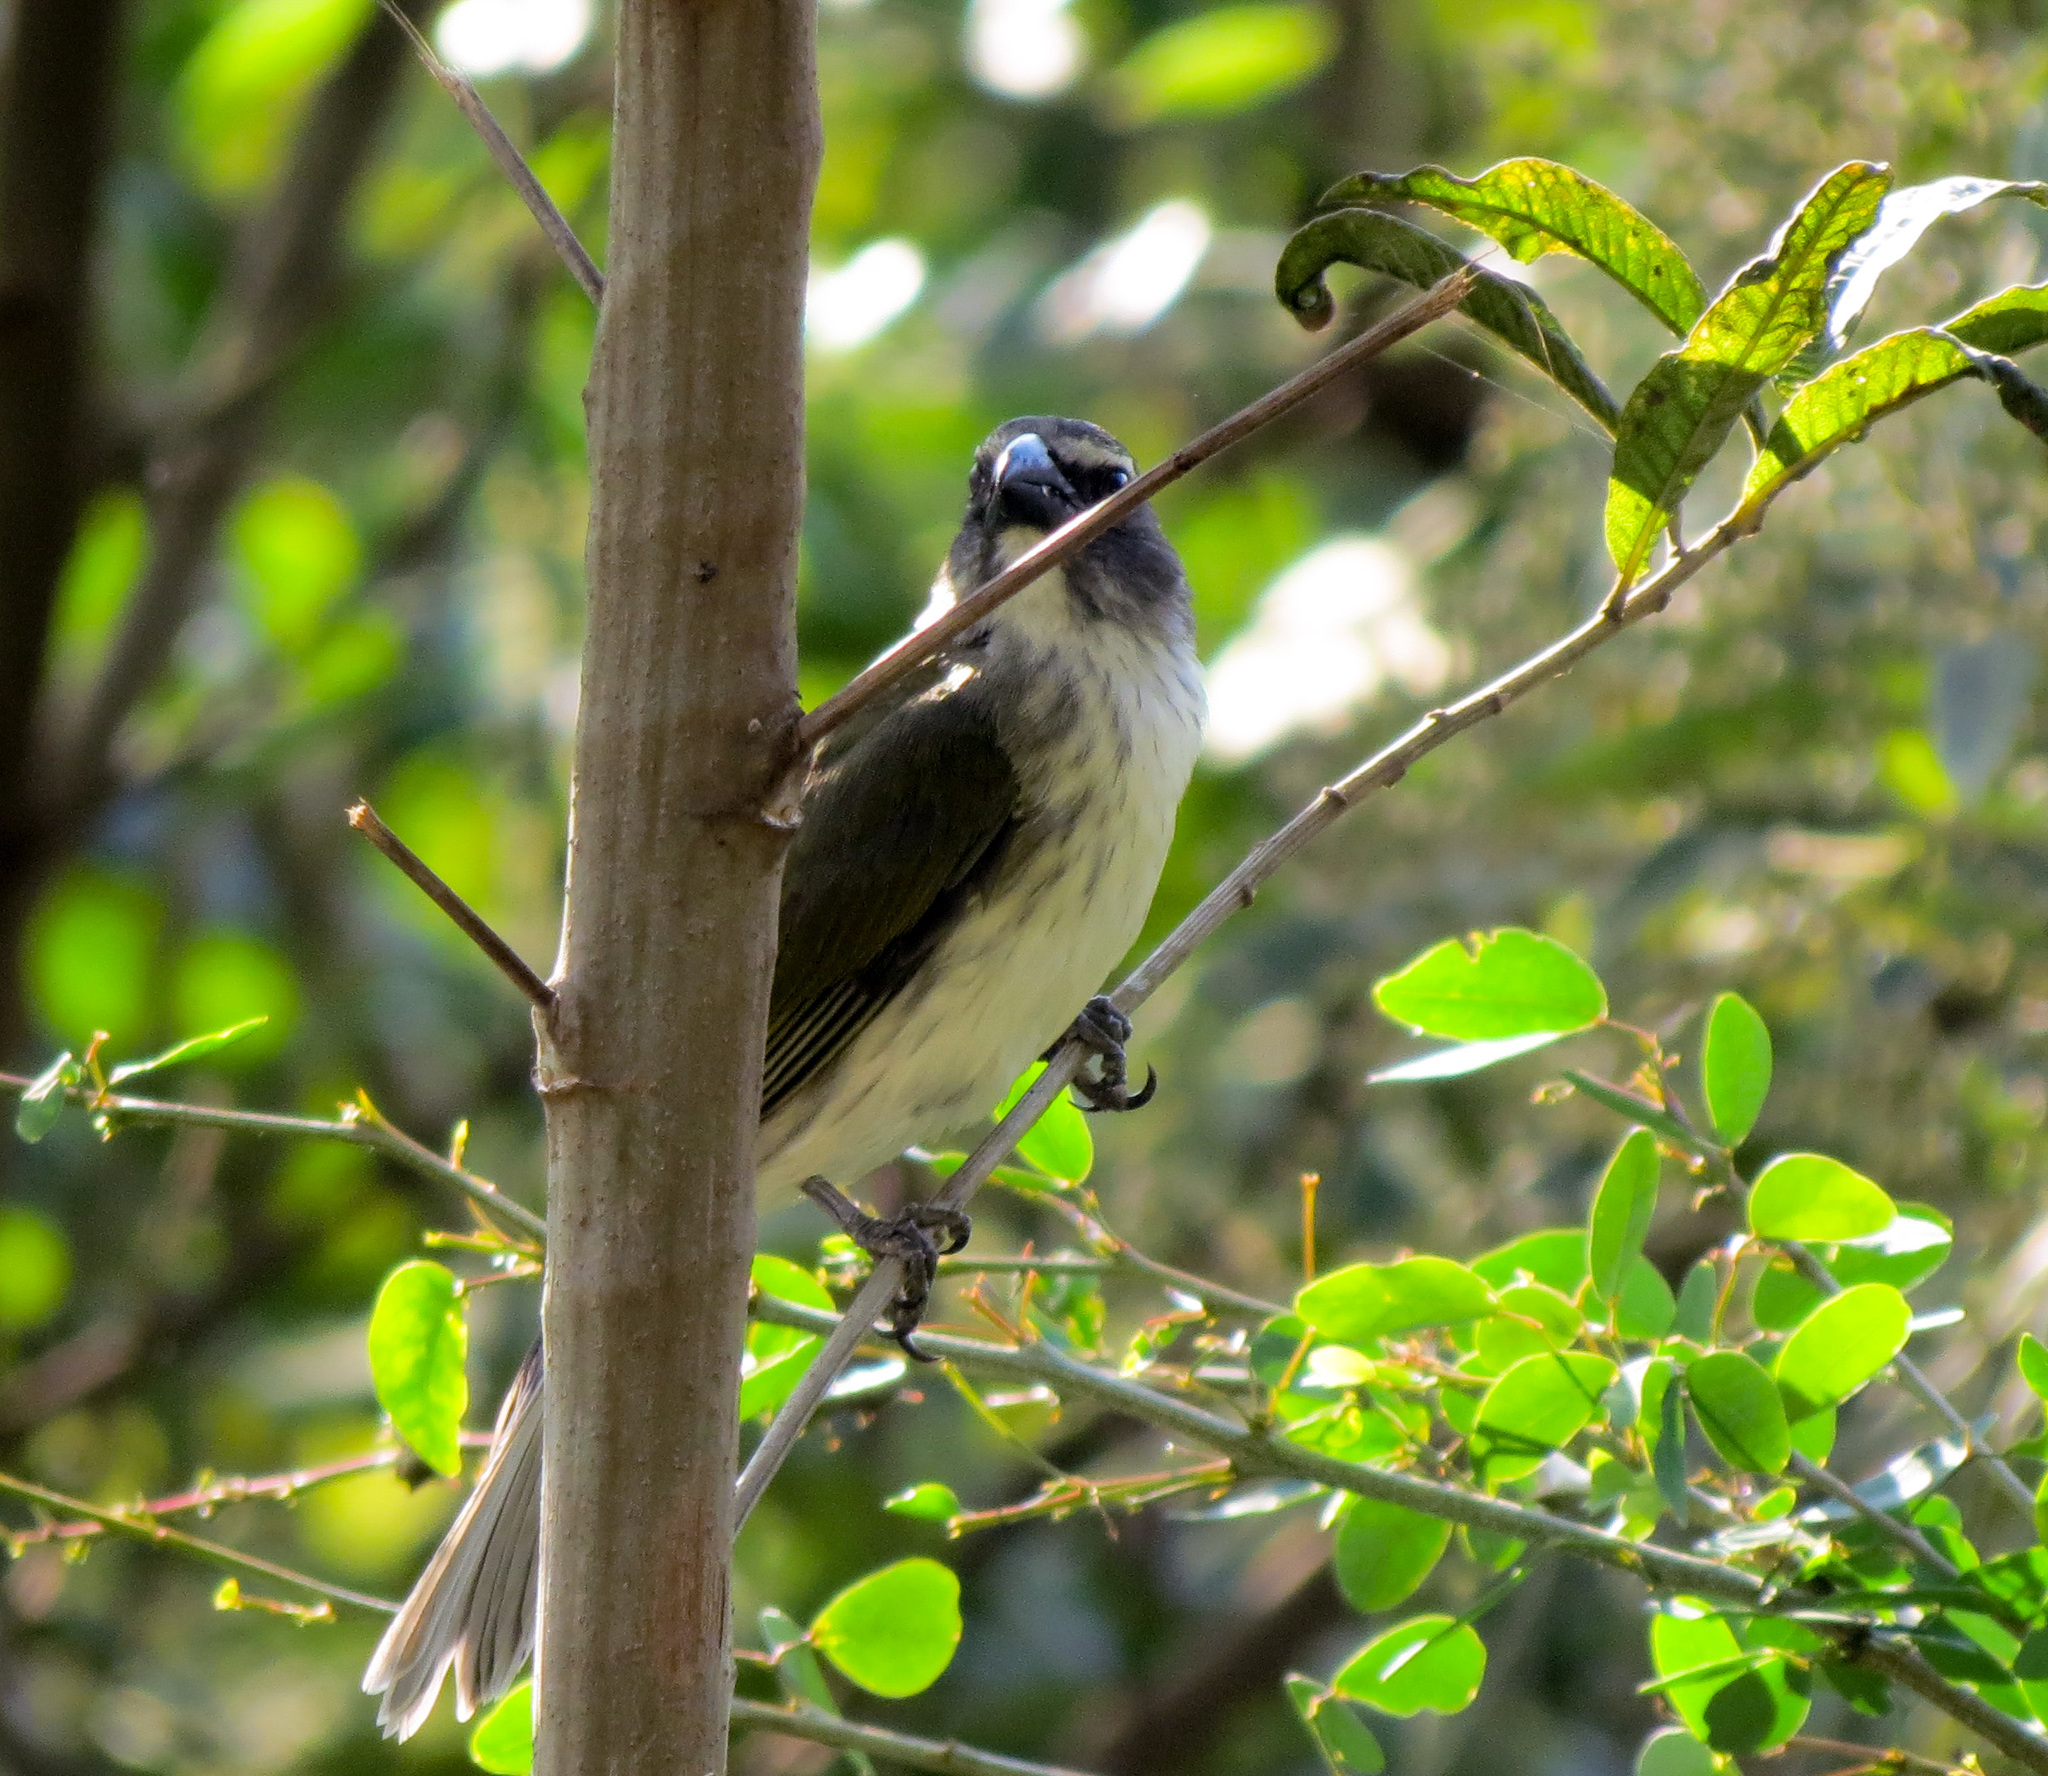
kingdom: Animalia
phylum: Chordata
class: Aves
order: Passeriformes
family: Thraupidae
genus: Saltator
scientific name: Saltator striatipectus
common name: Streaked saltator
